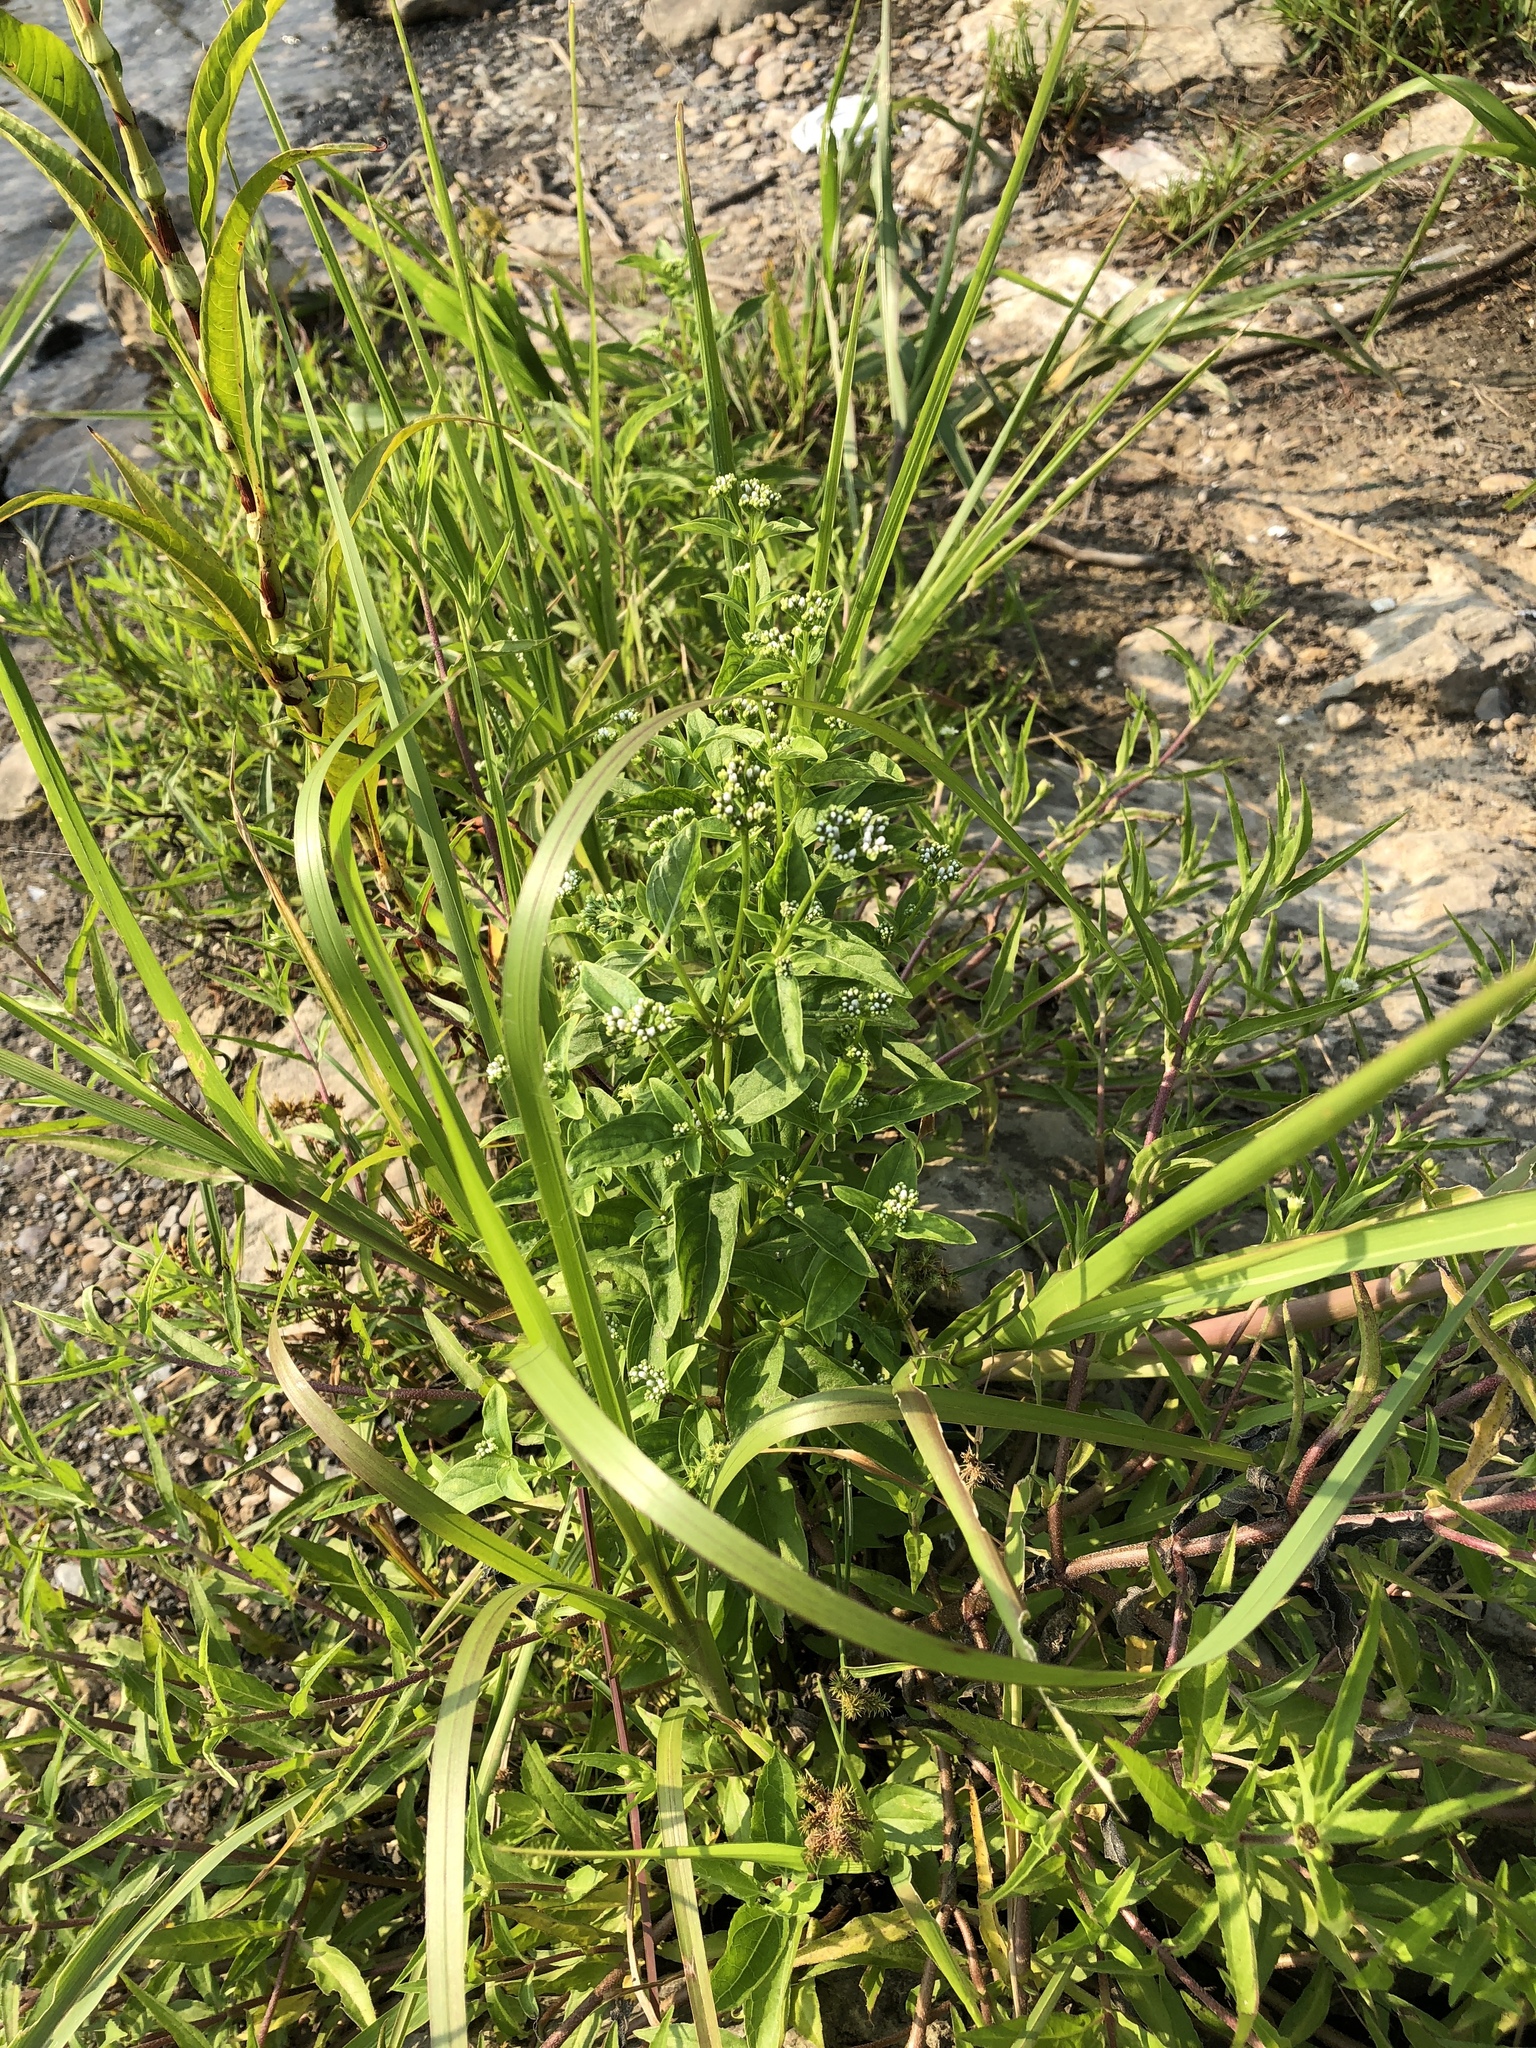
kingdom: Plantae
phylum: Tracheophyta
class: Magnoliopsida
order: Gentianales
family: Loganiaceae
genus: Mitreola
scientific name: Mitreola petiolata
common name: Lax hornpod
